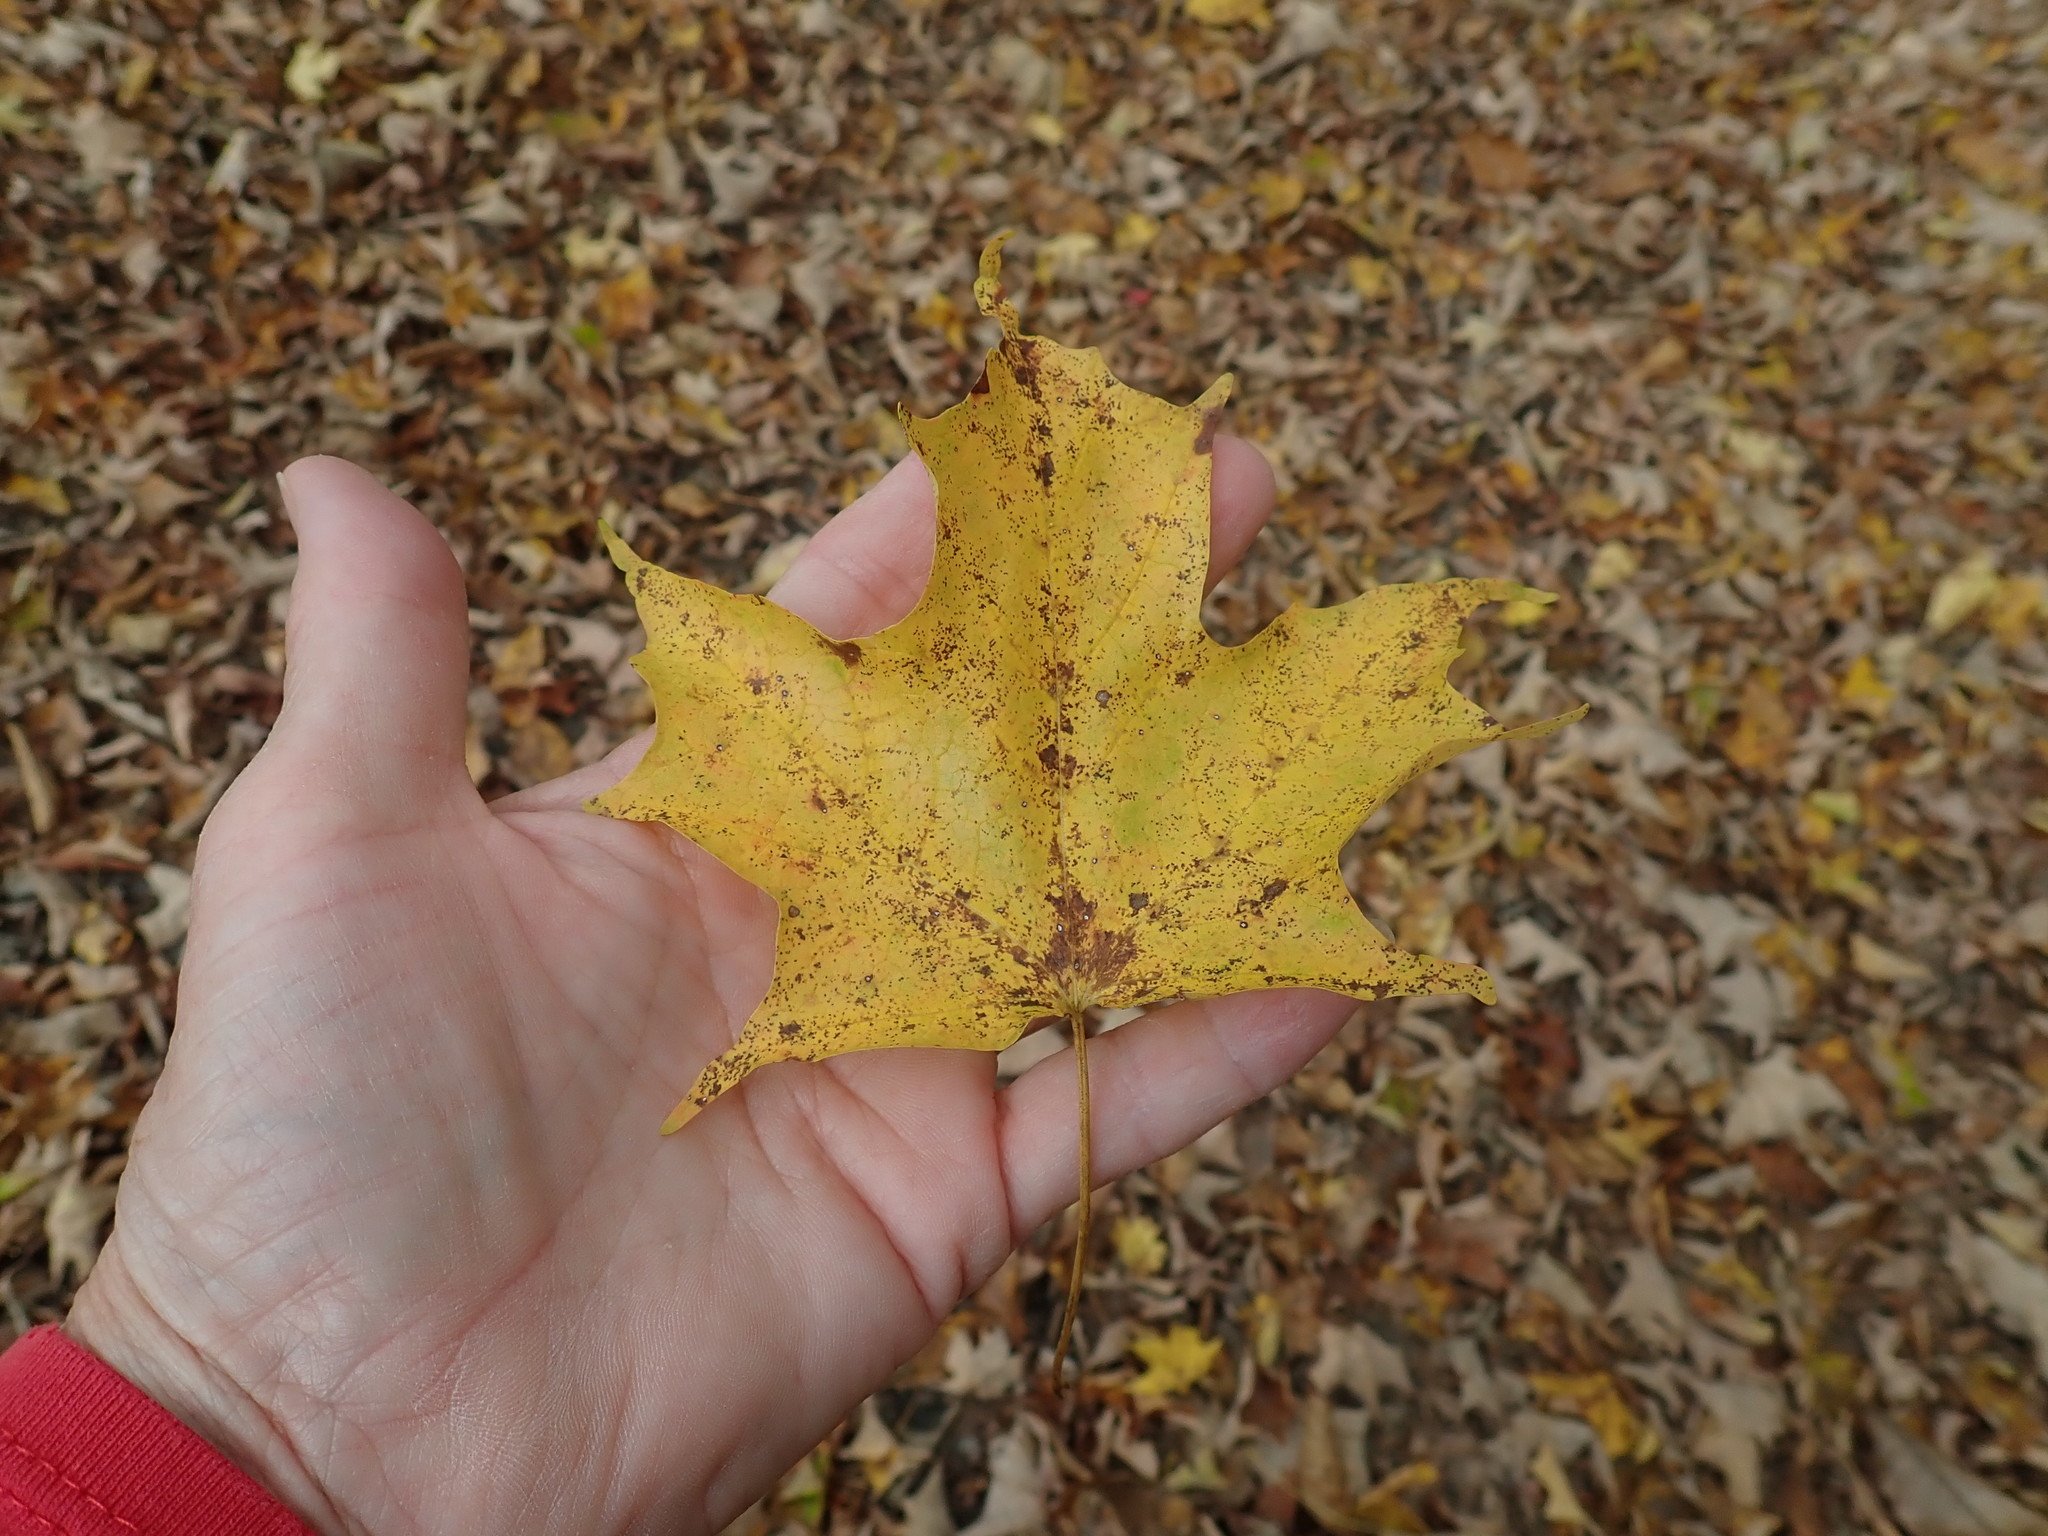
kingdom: Plantae
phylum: Tracheophyta
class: Magnoliopsida
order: Sapindales
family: Sapindaceae
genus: Acer
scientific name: Acer saccharum
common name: Sugar maple
